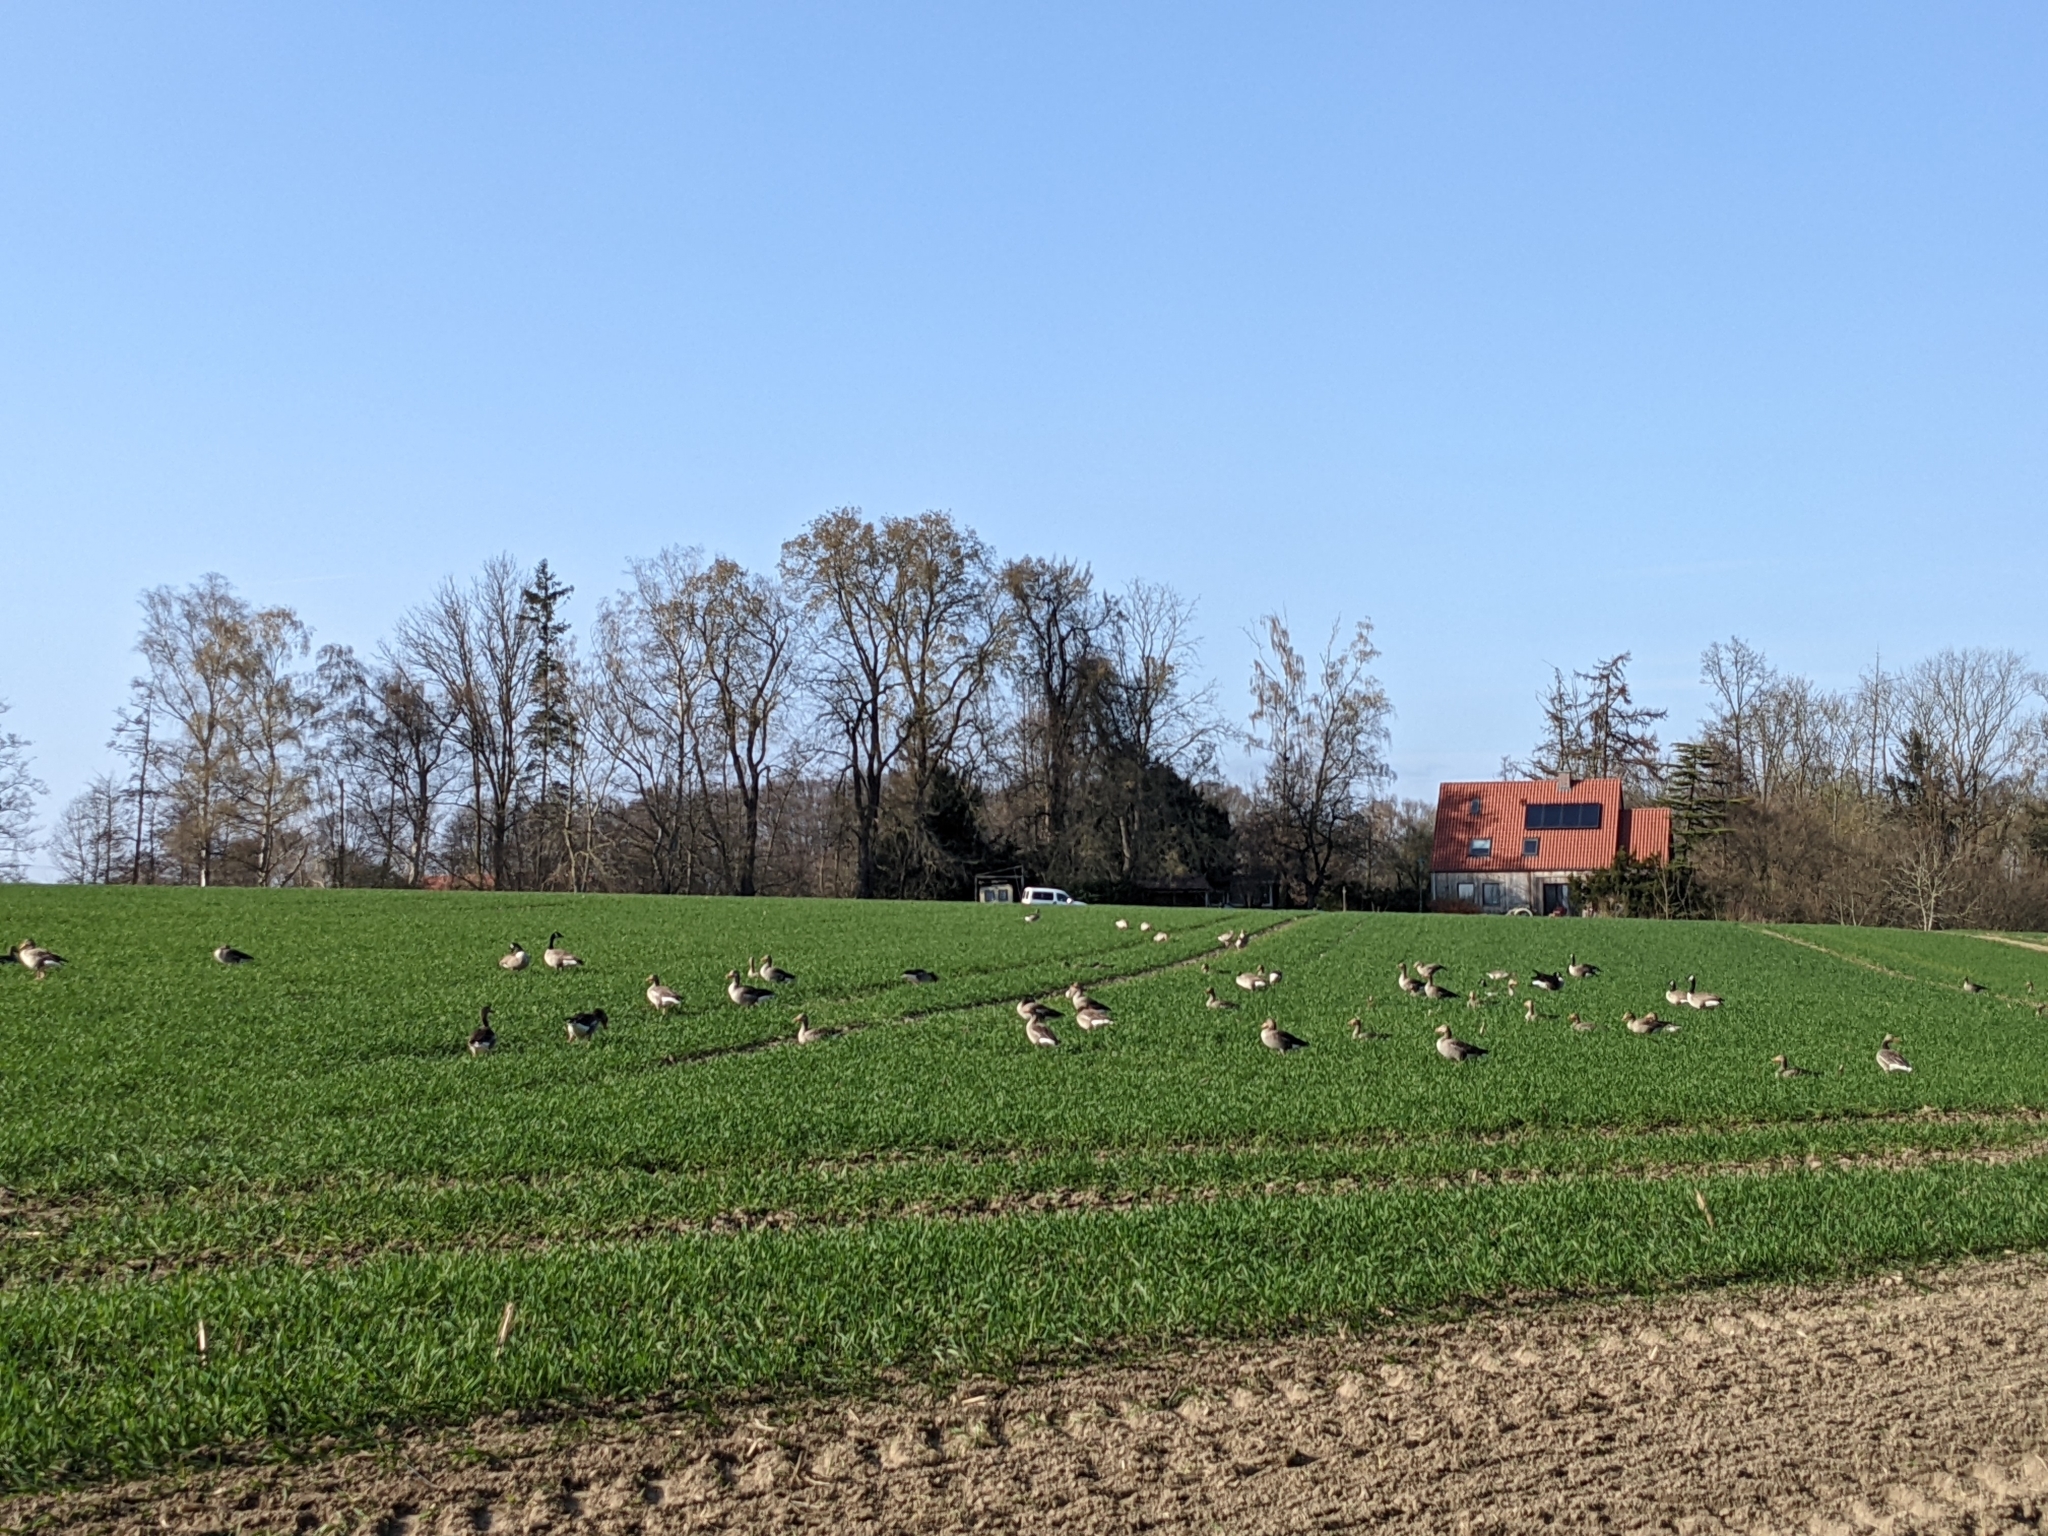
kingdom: Animalia
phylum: Chordata
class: Aves
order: Anseriformes
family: Anatidae
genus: Anser
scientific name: Anser anser
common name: Greylag goose
